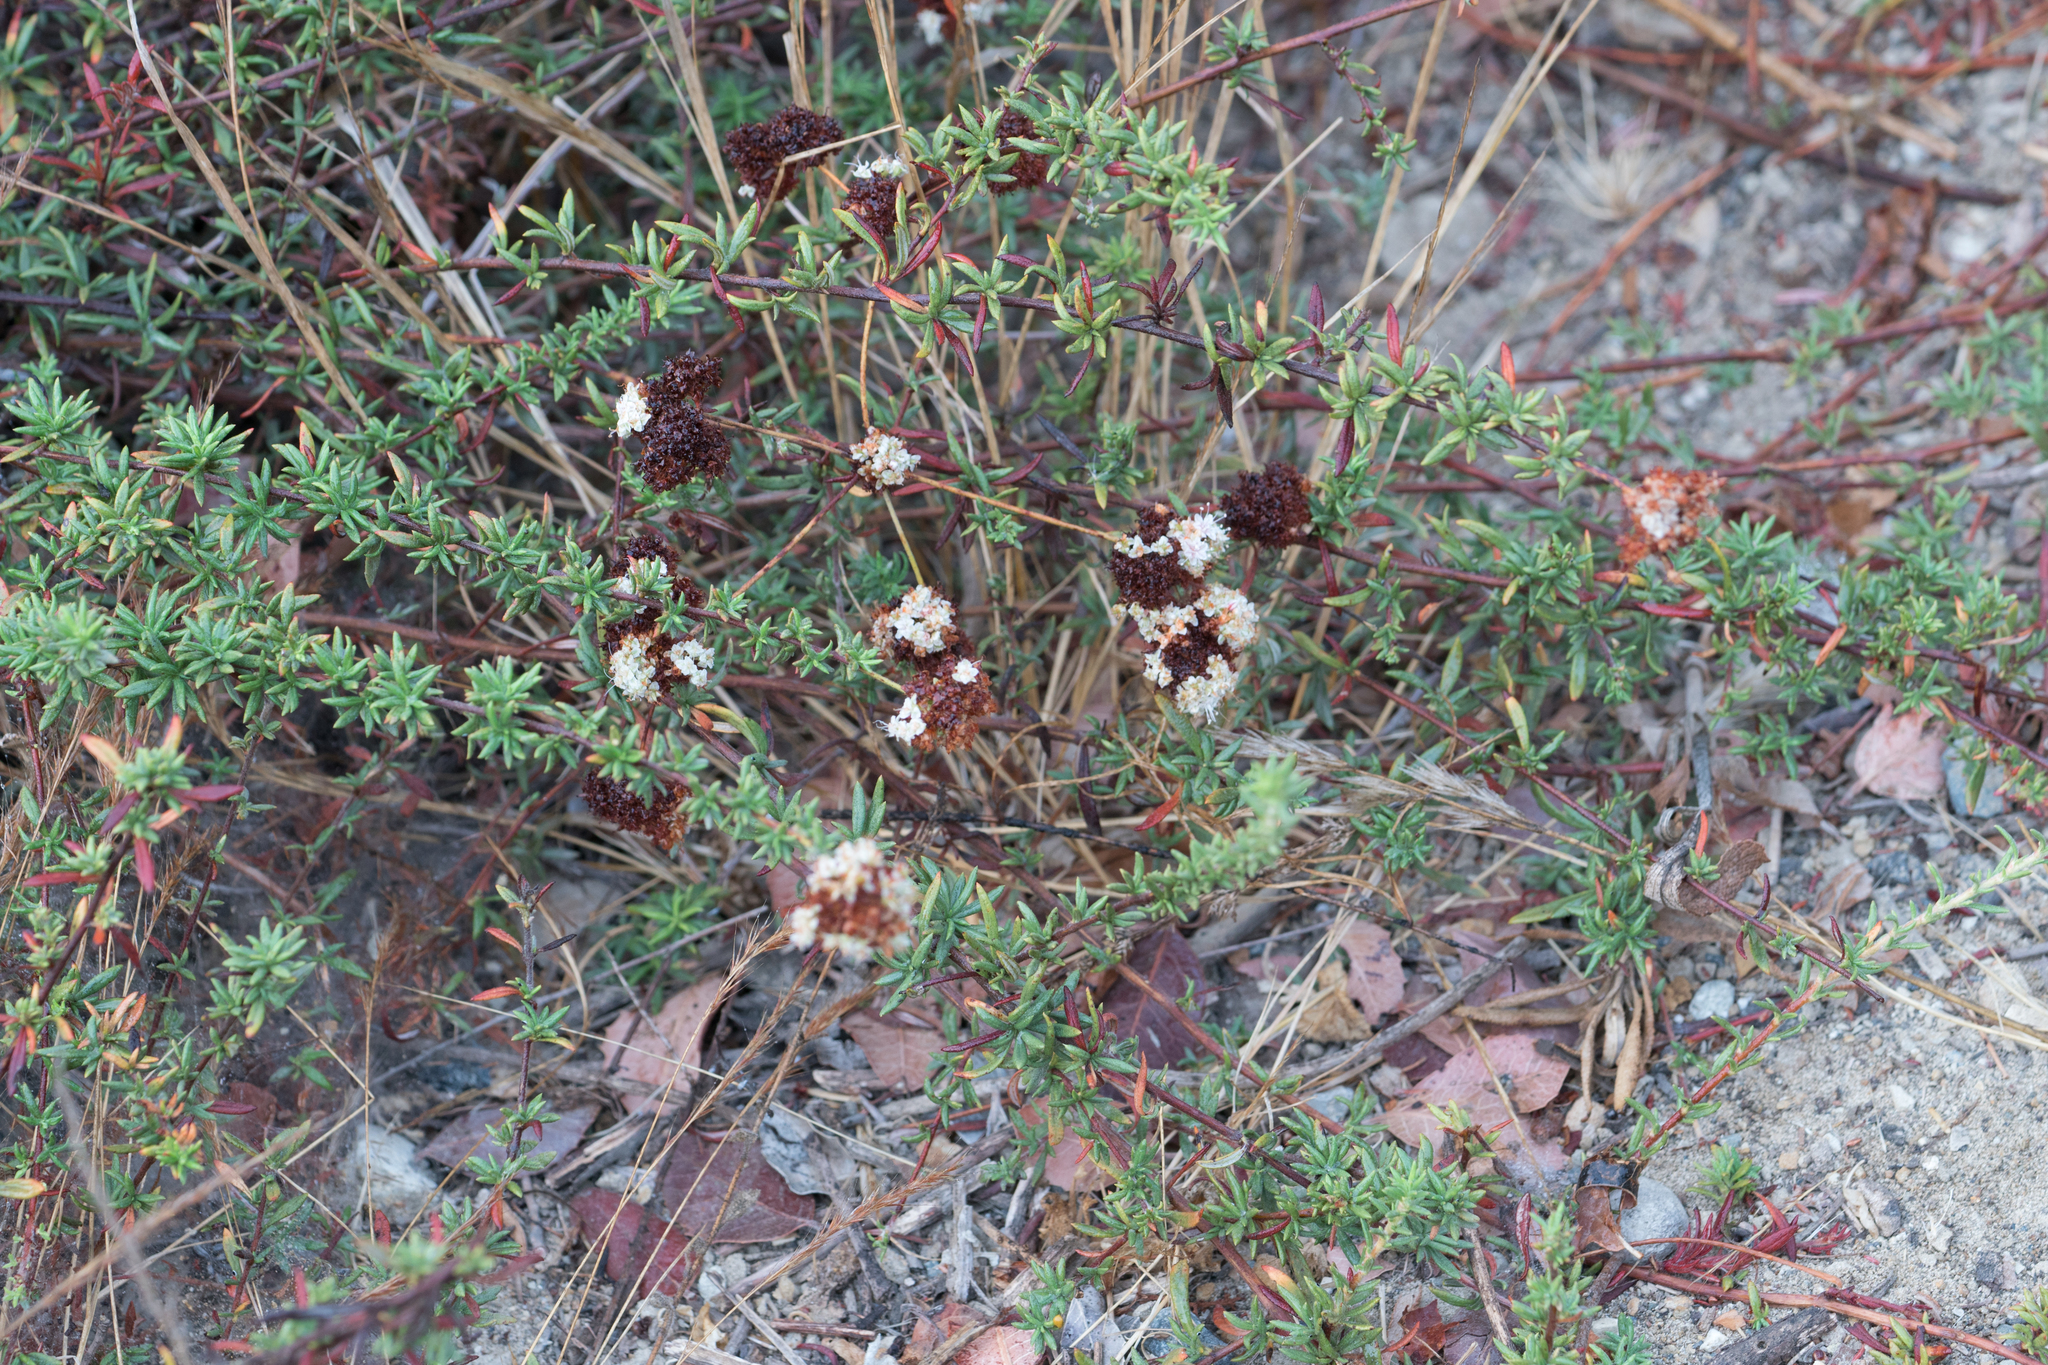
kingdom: Plantae
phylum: Tracheophyta
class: Magnoliopsida
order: Caryophyllales
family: Polygonaceae
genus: Eriogonum
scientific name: Eriogonum fasciculatum
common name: California wild buckwheat
